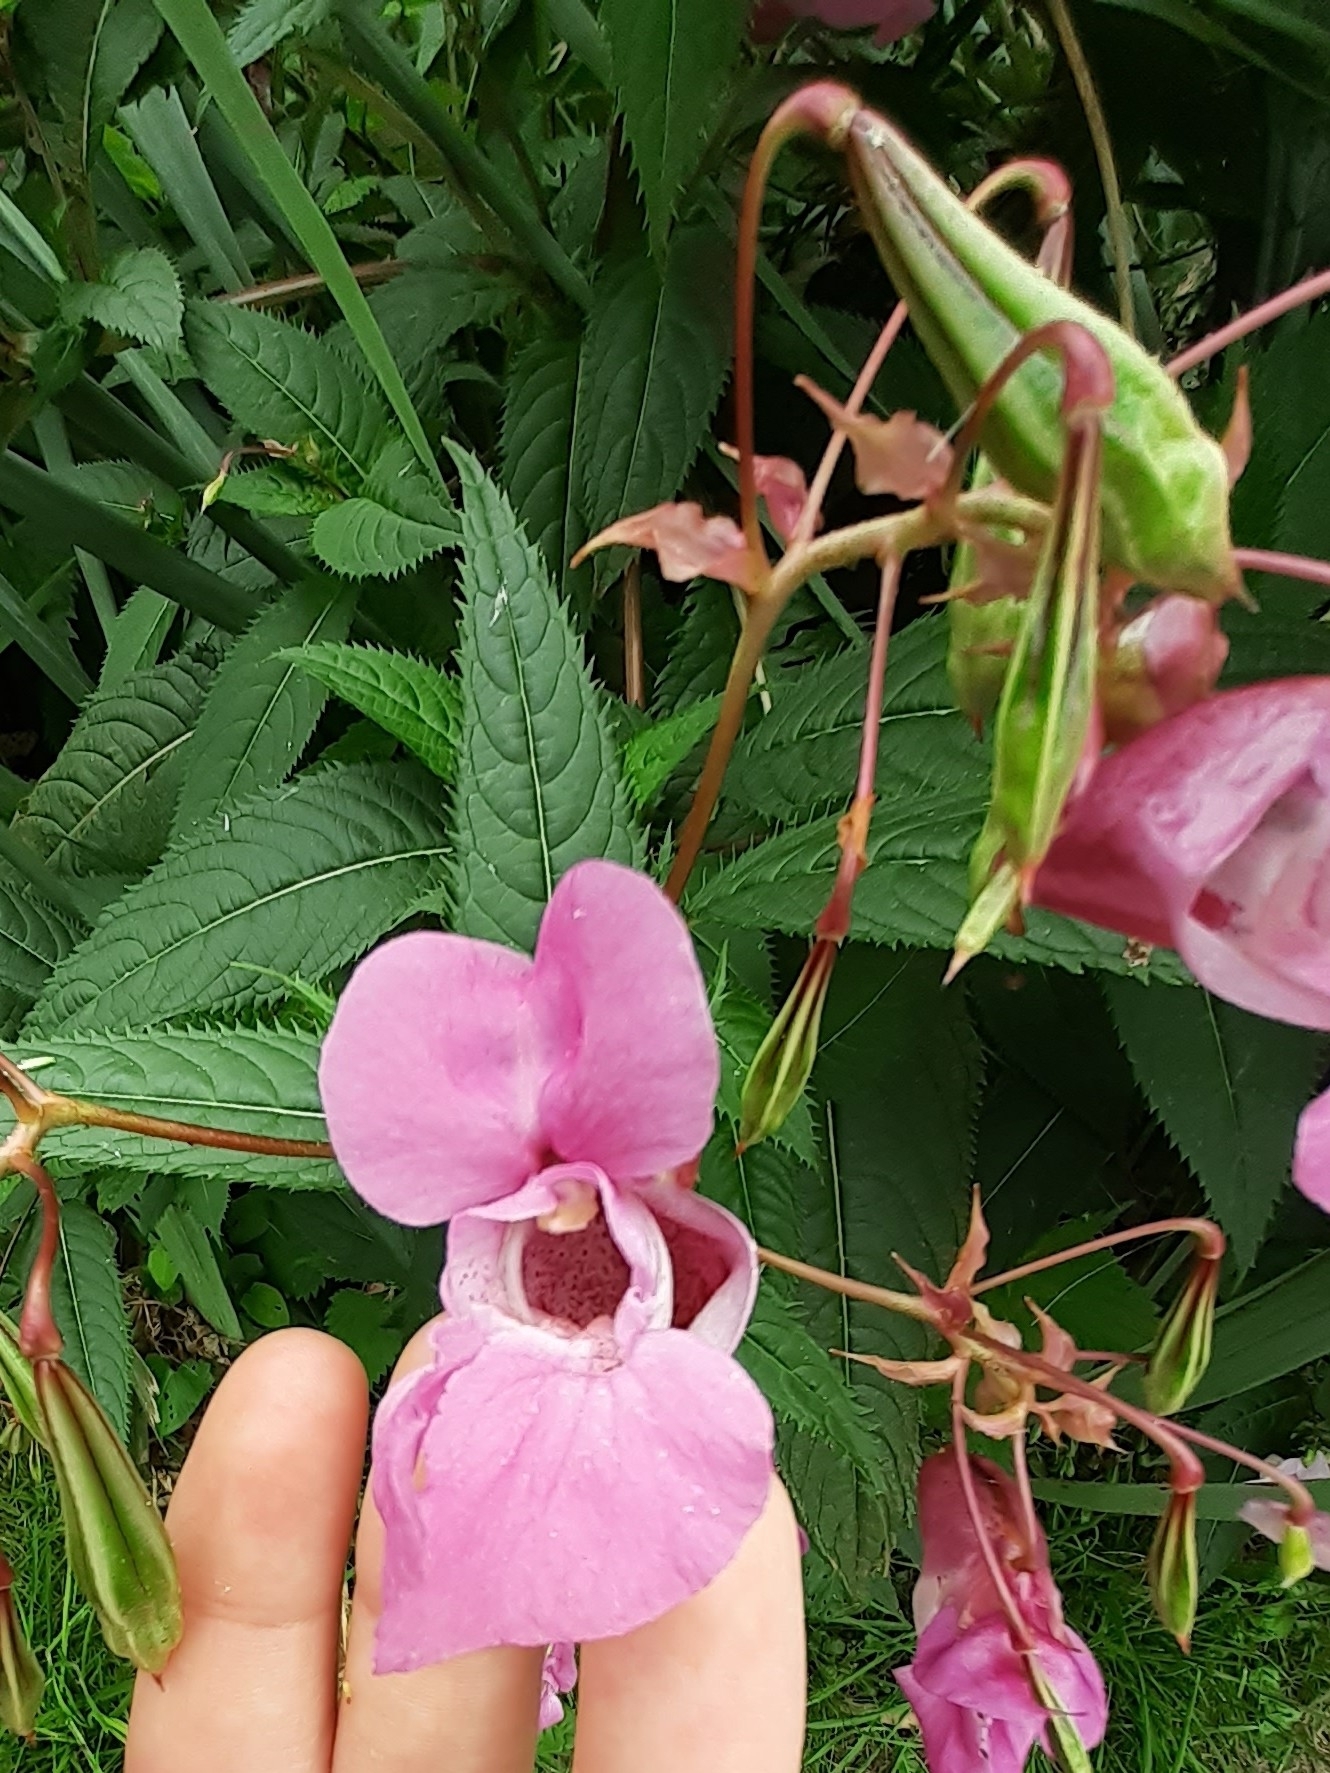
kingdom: Plantae
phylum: Tracheophyta
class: Magnoliopsida
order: Ericales
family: Balsaminaceae
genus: Impatiens
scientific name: Impatiens glandulifera
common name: Himalayan balsam
